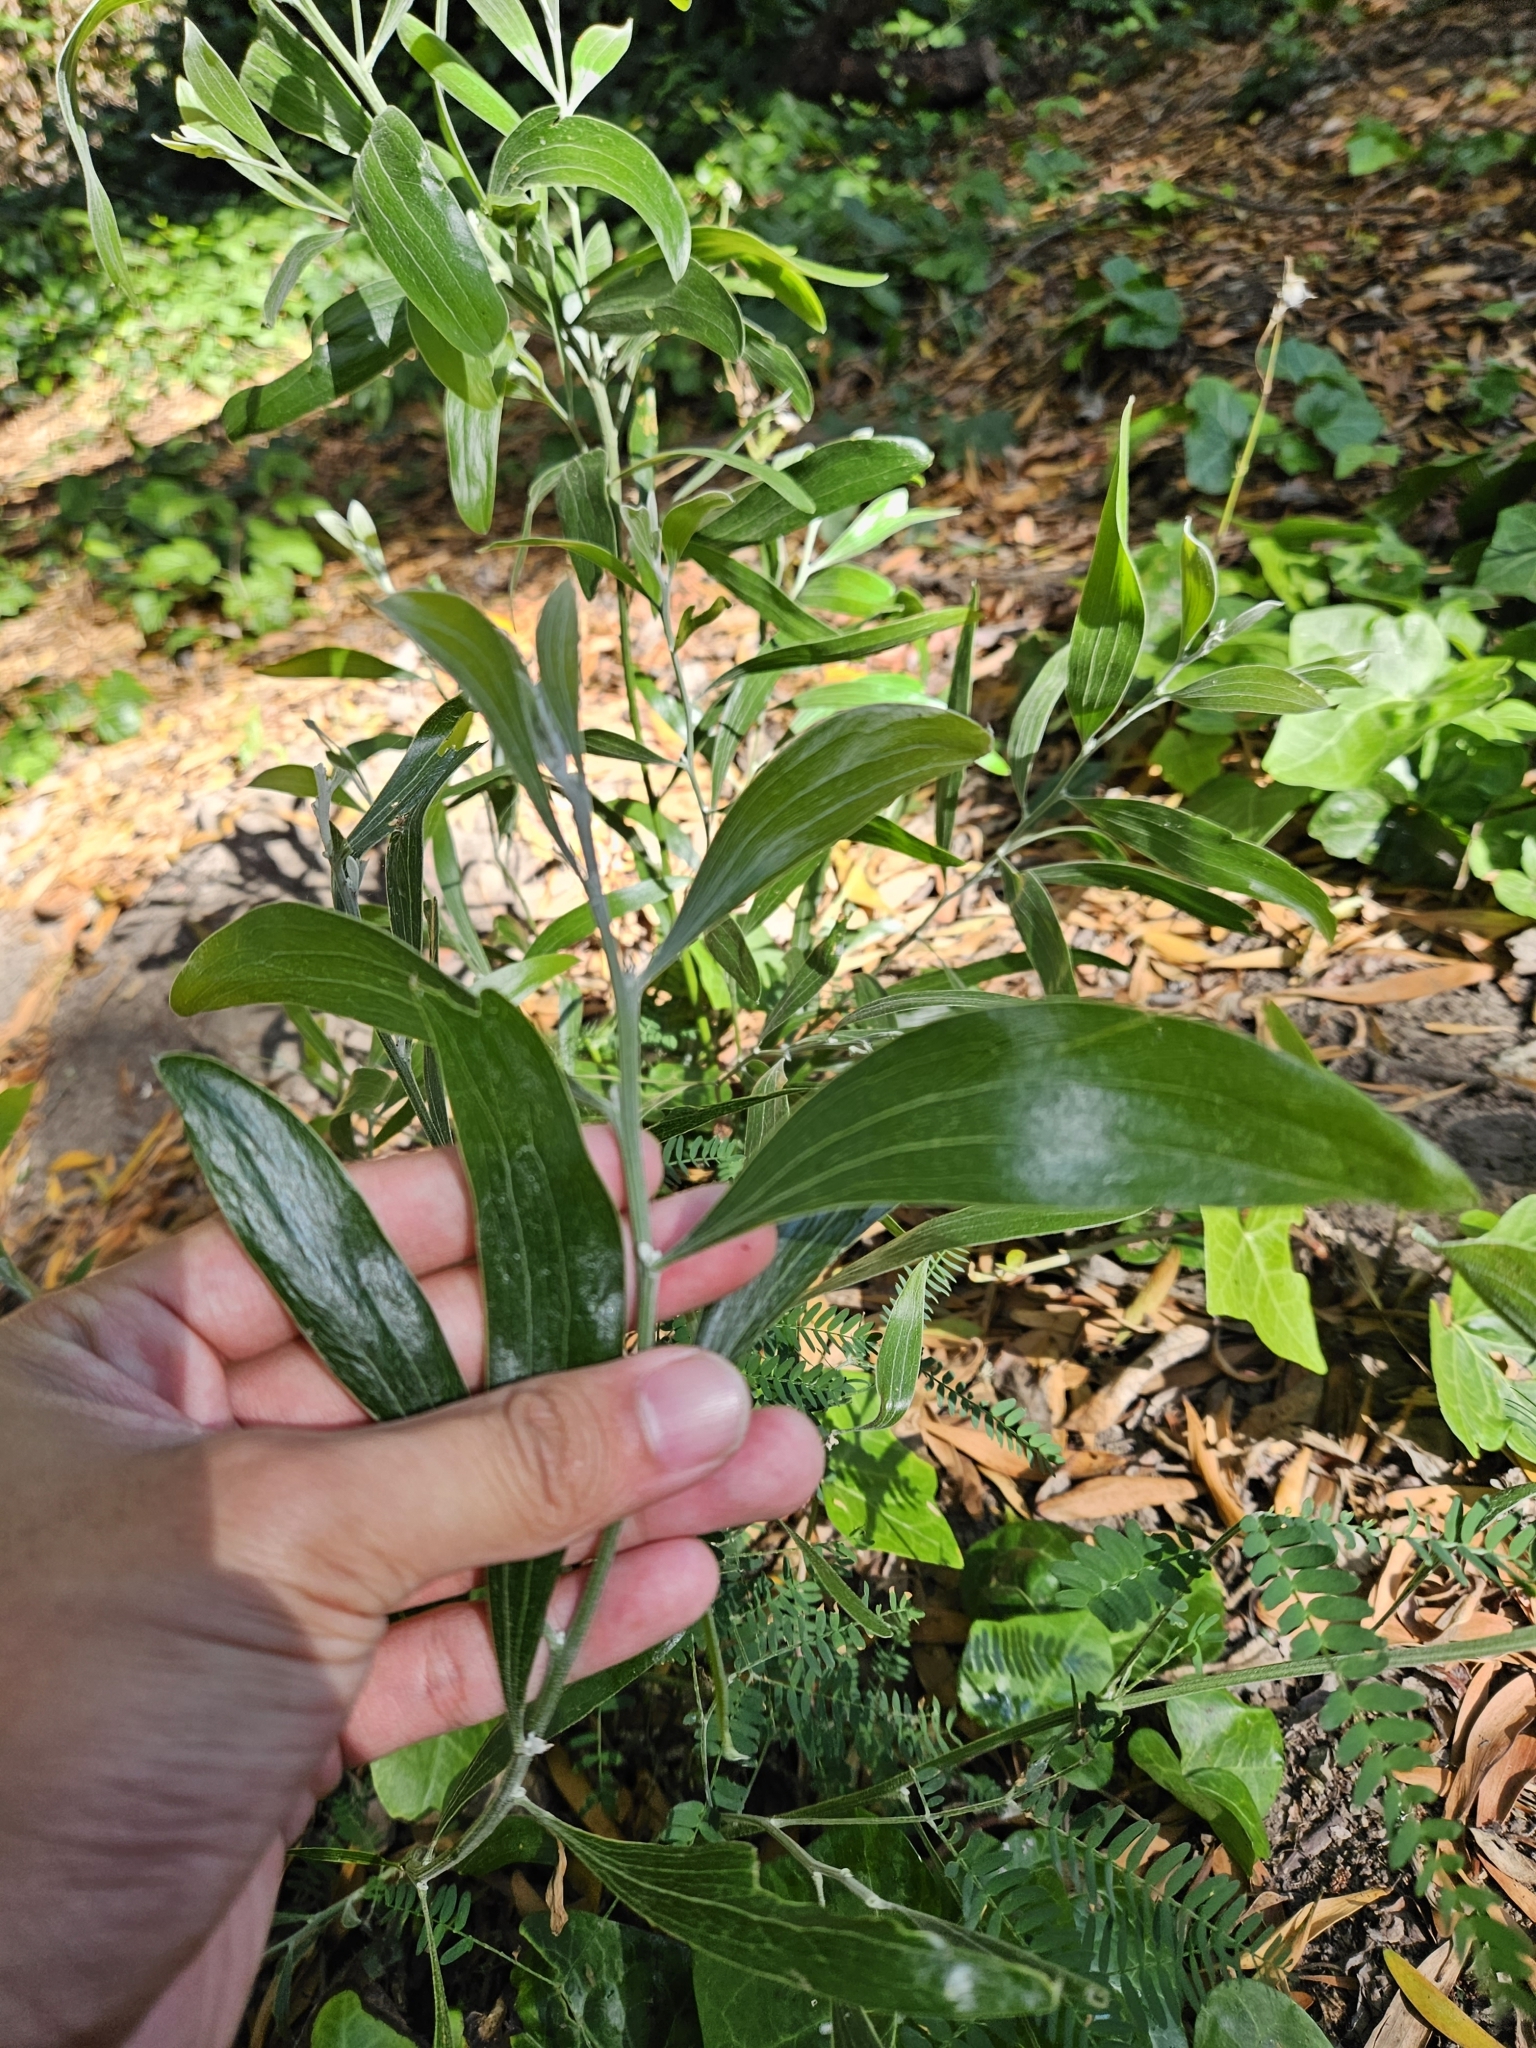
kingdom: Plantae
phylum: Tracheophyta
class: Magnoliopsida
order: Fabales
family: Fabaceae
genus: Acacia
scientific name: Acacia melanoxylon
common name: Blackwood
